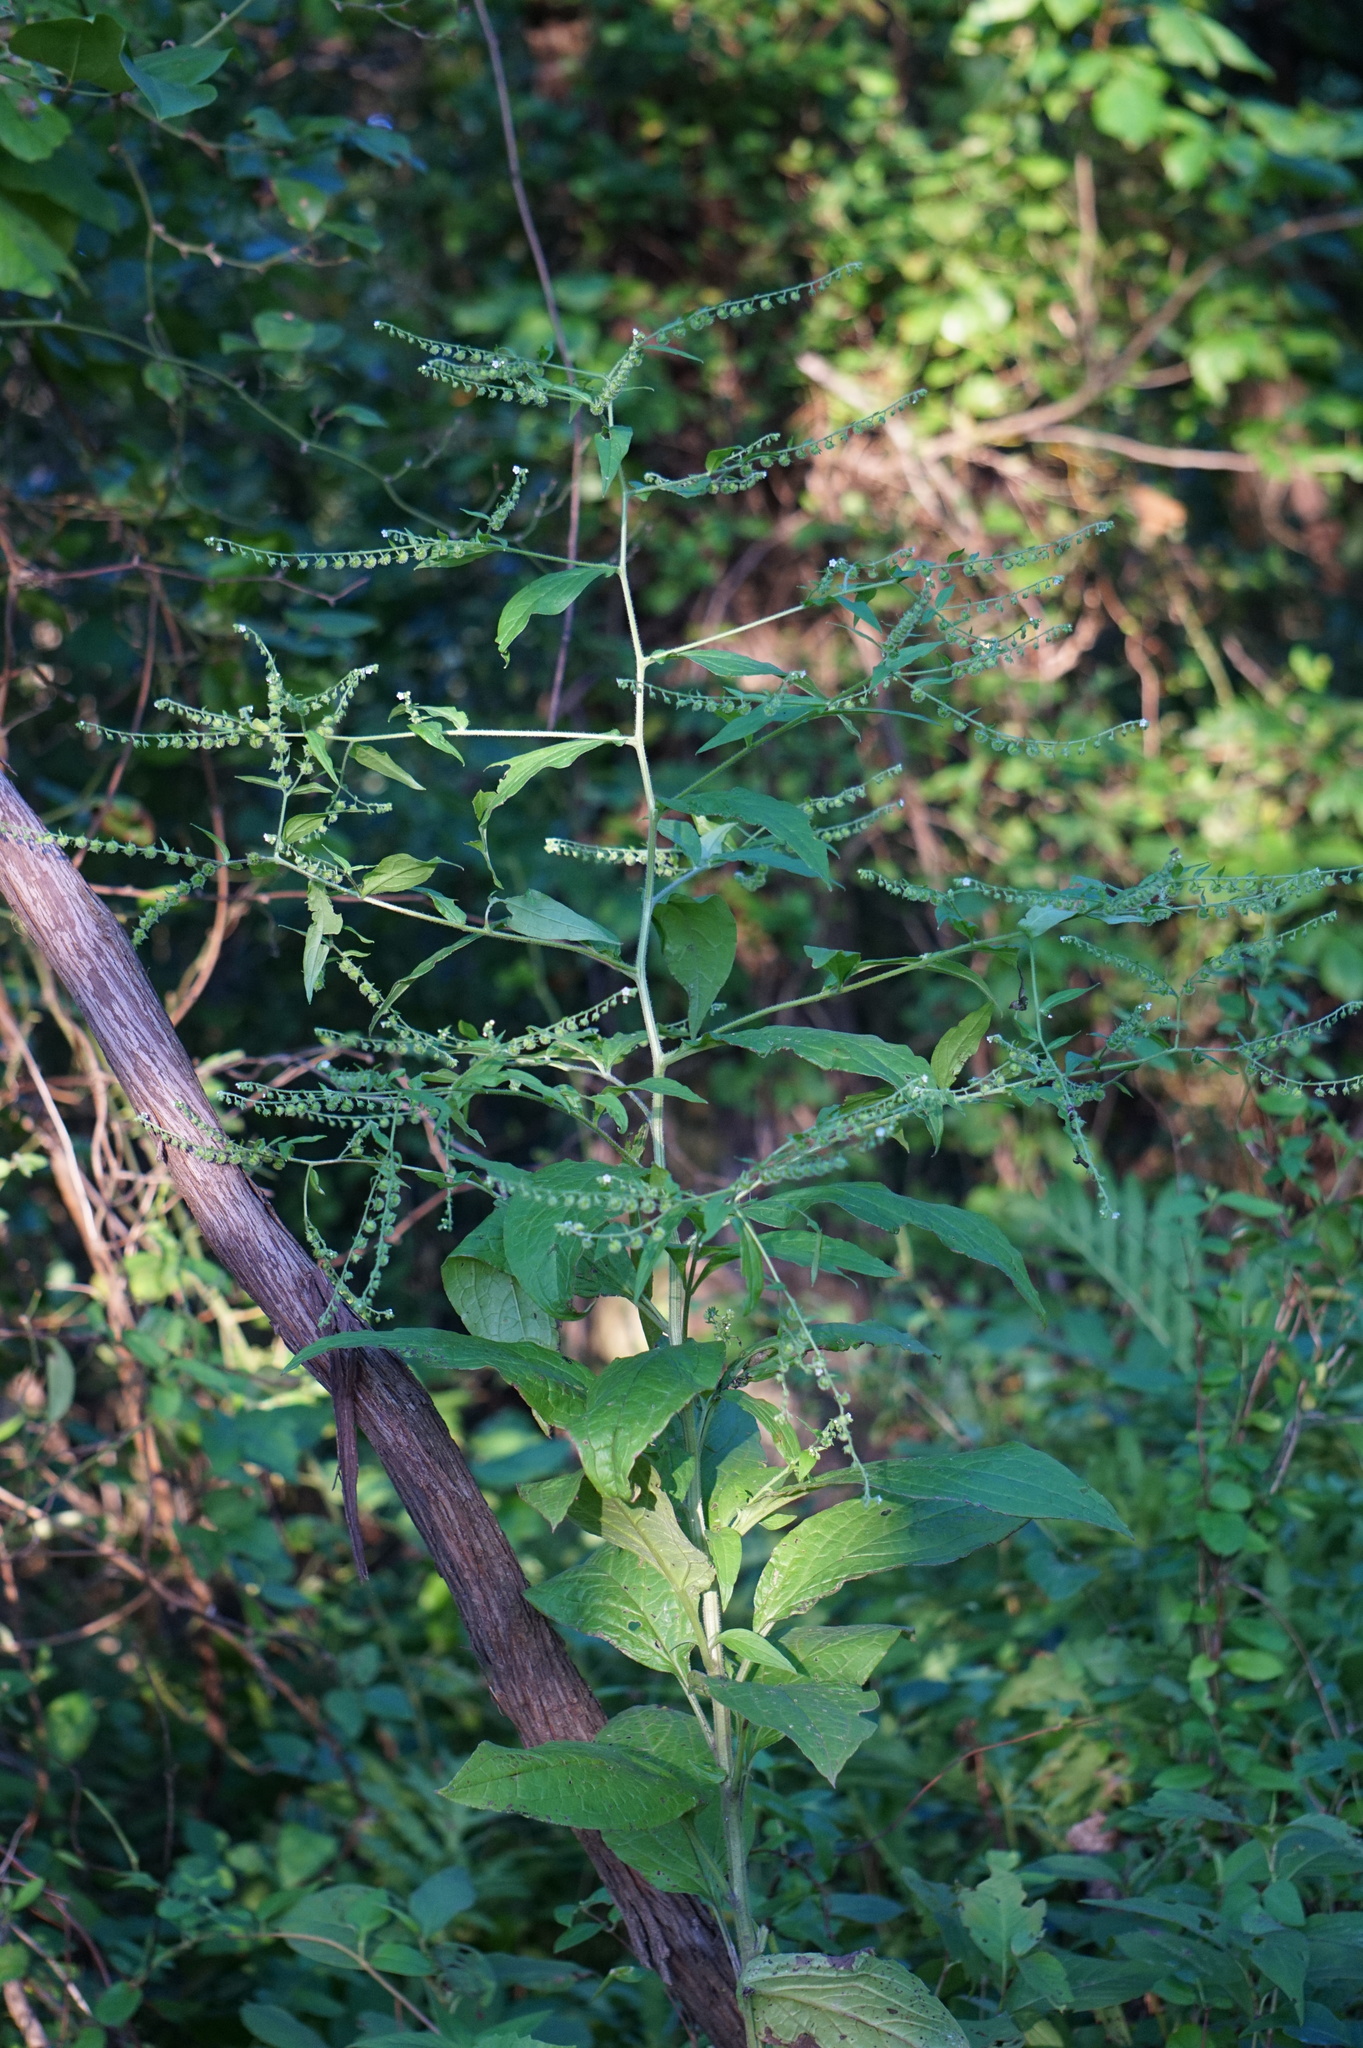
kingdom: Plantae
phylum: Tracheophyta
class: Magnoliopsida
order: Boraginales
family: Boraginaceae
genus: Hackelia
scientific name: Hackelia virginiana
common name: Beggar's-lice
